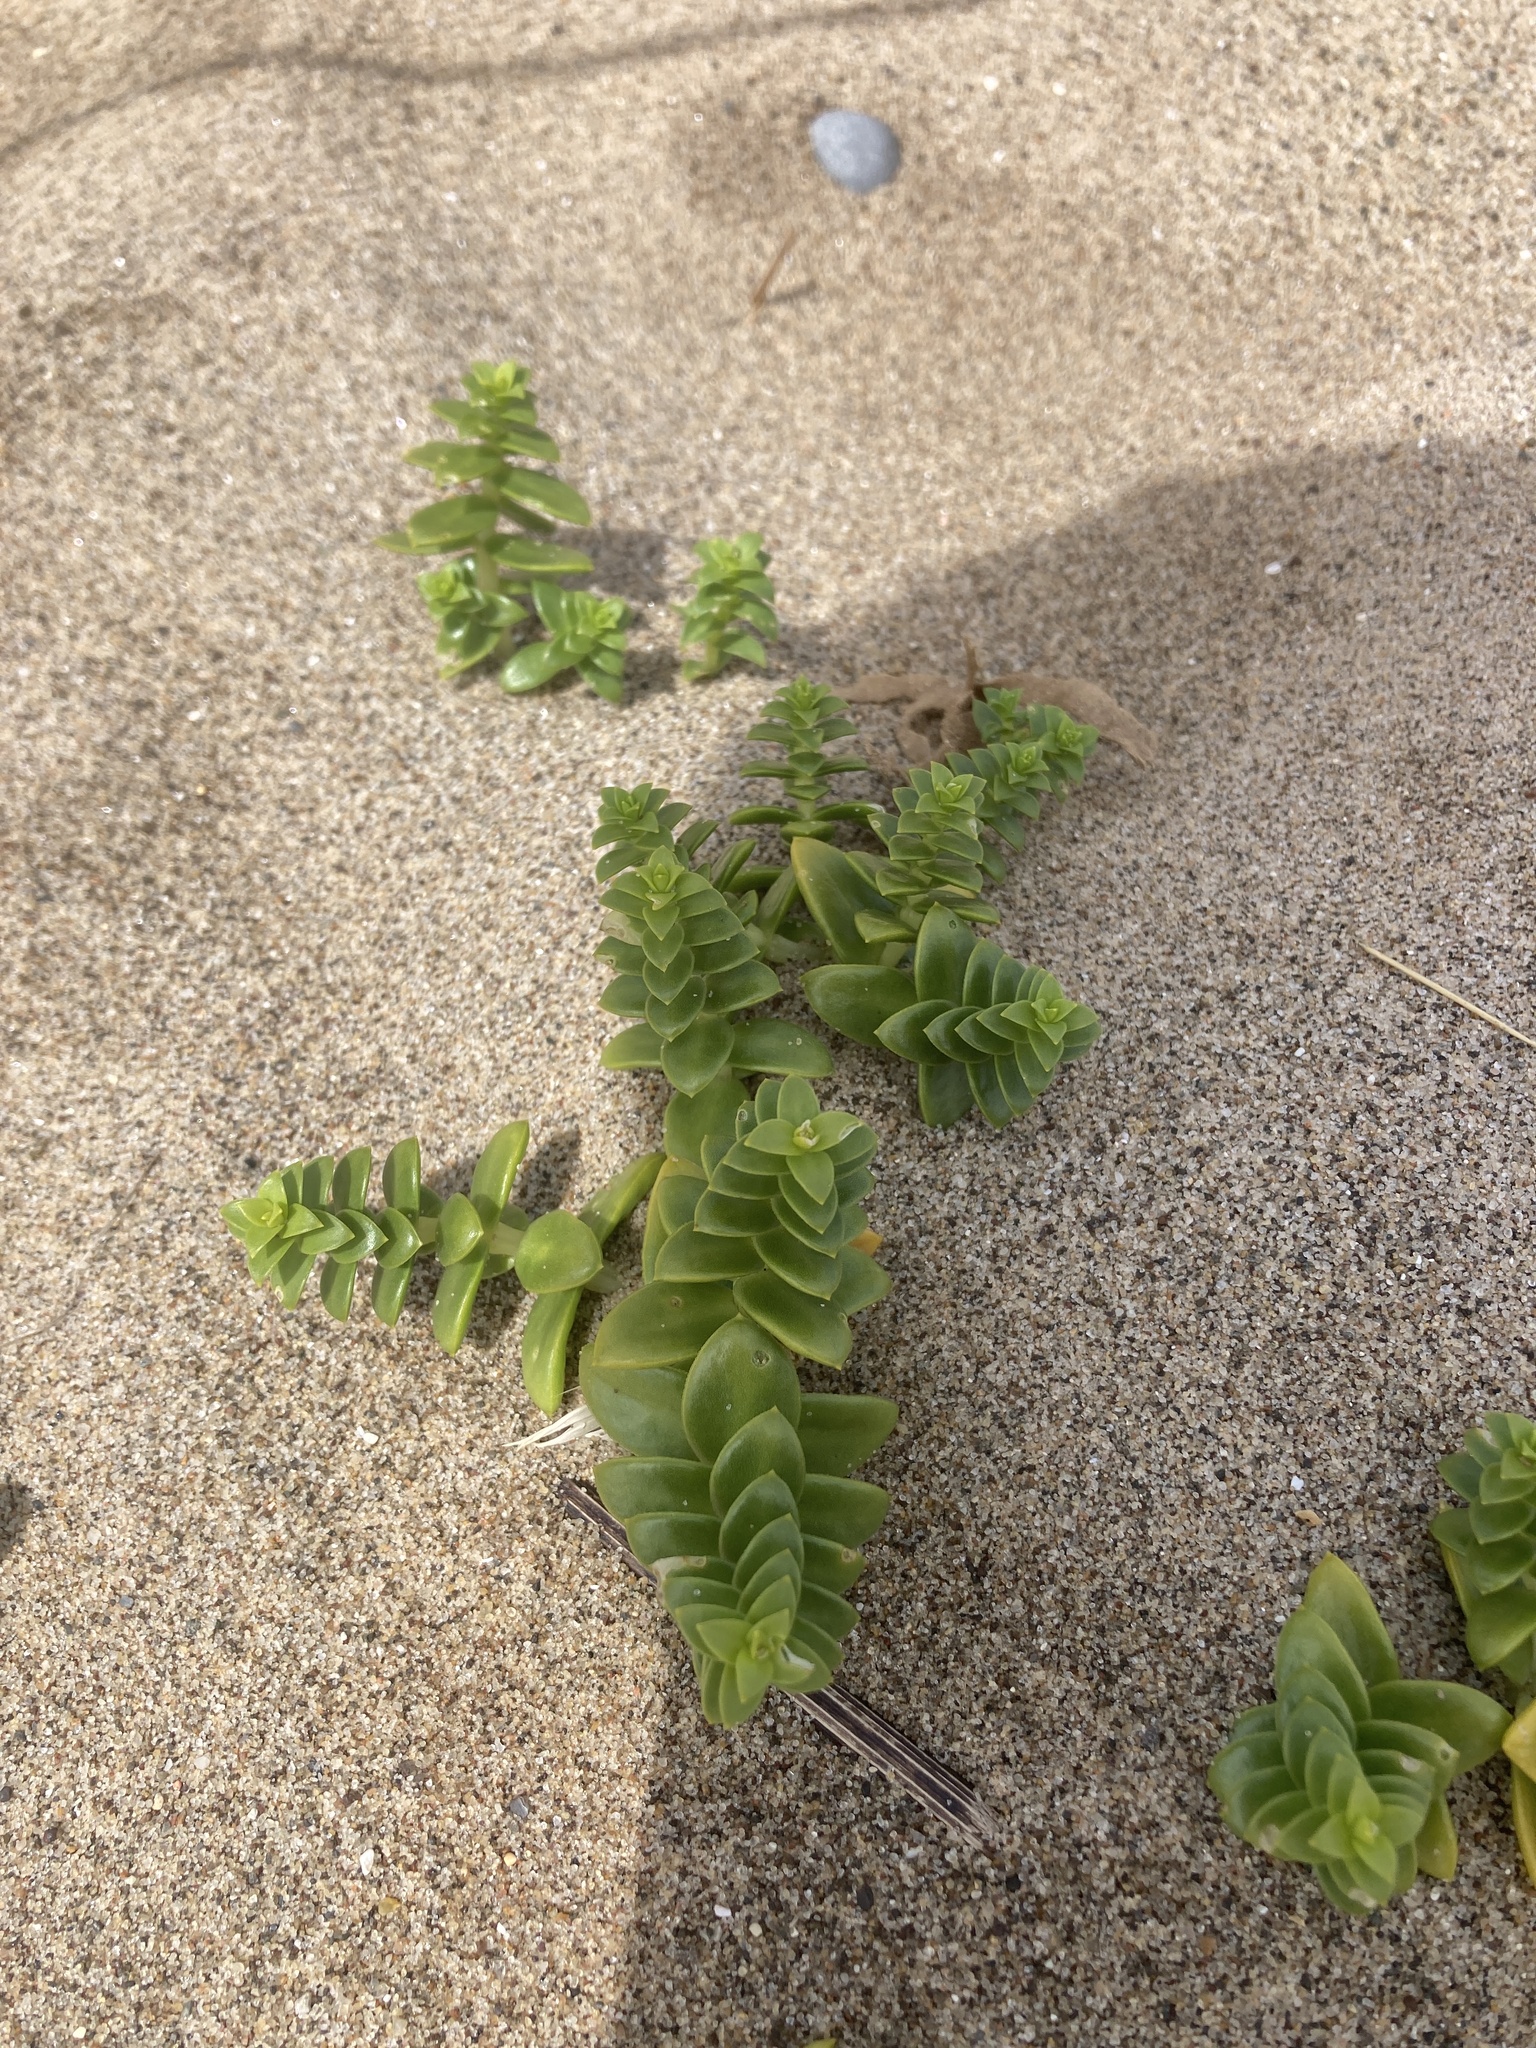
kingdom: Plantae
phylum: Tracheophyta
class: Magnoliopsida
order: Caryophyllales
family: Caryophyllaceae
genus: Honckenya
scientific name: Honckenya peploides
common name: Sea sandwort
